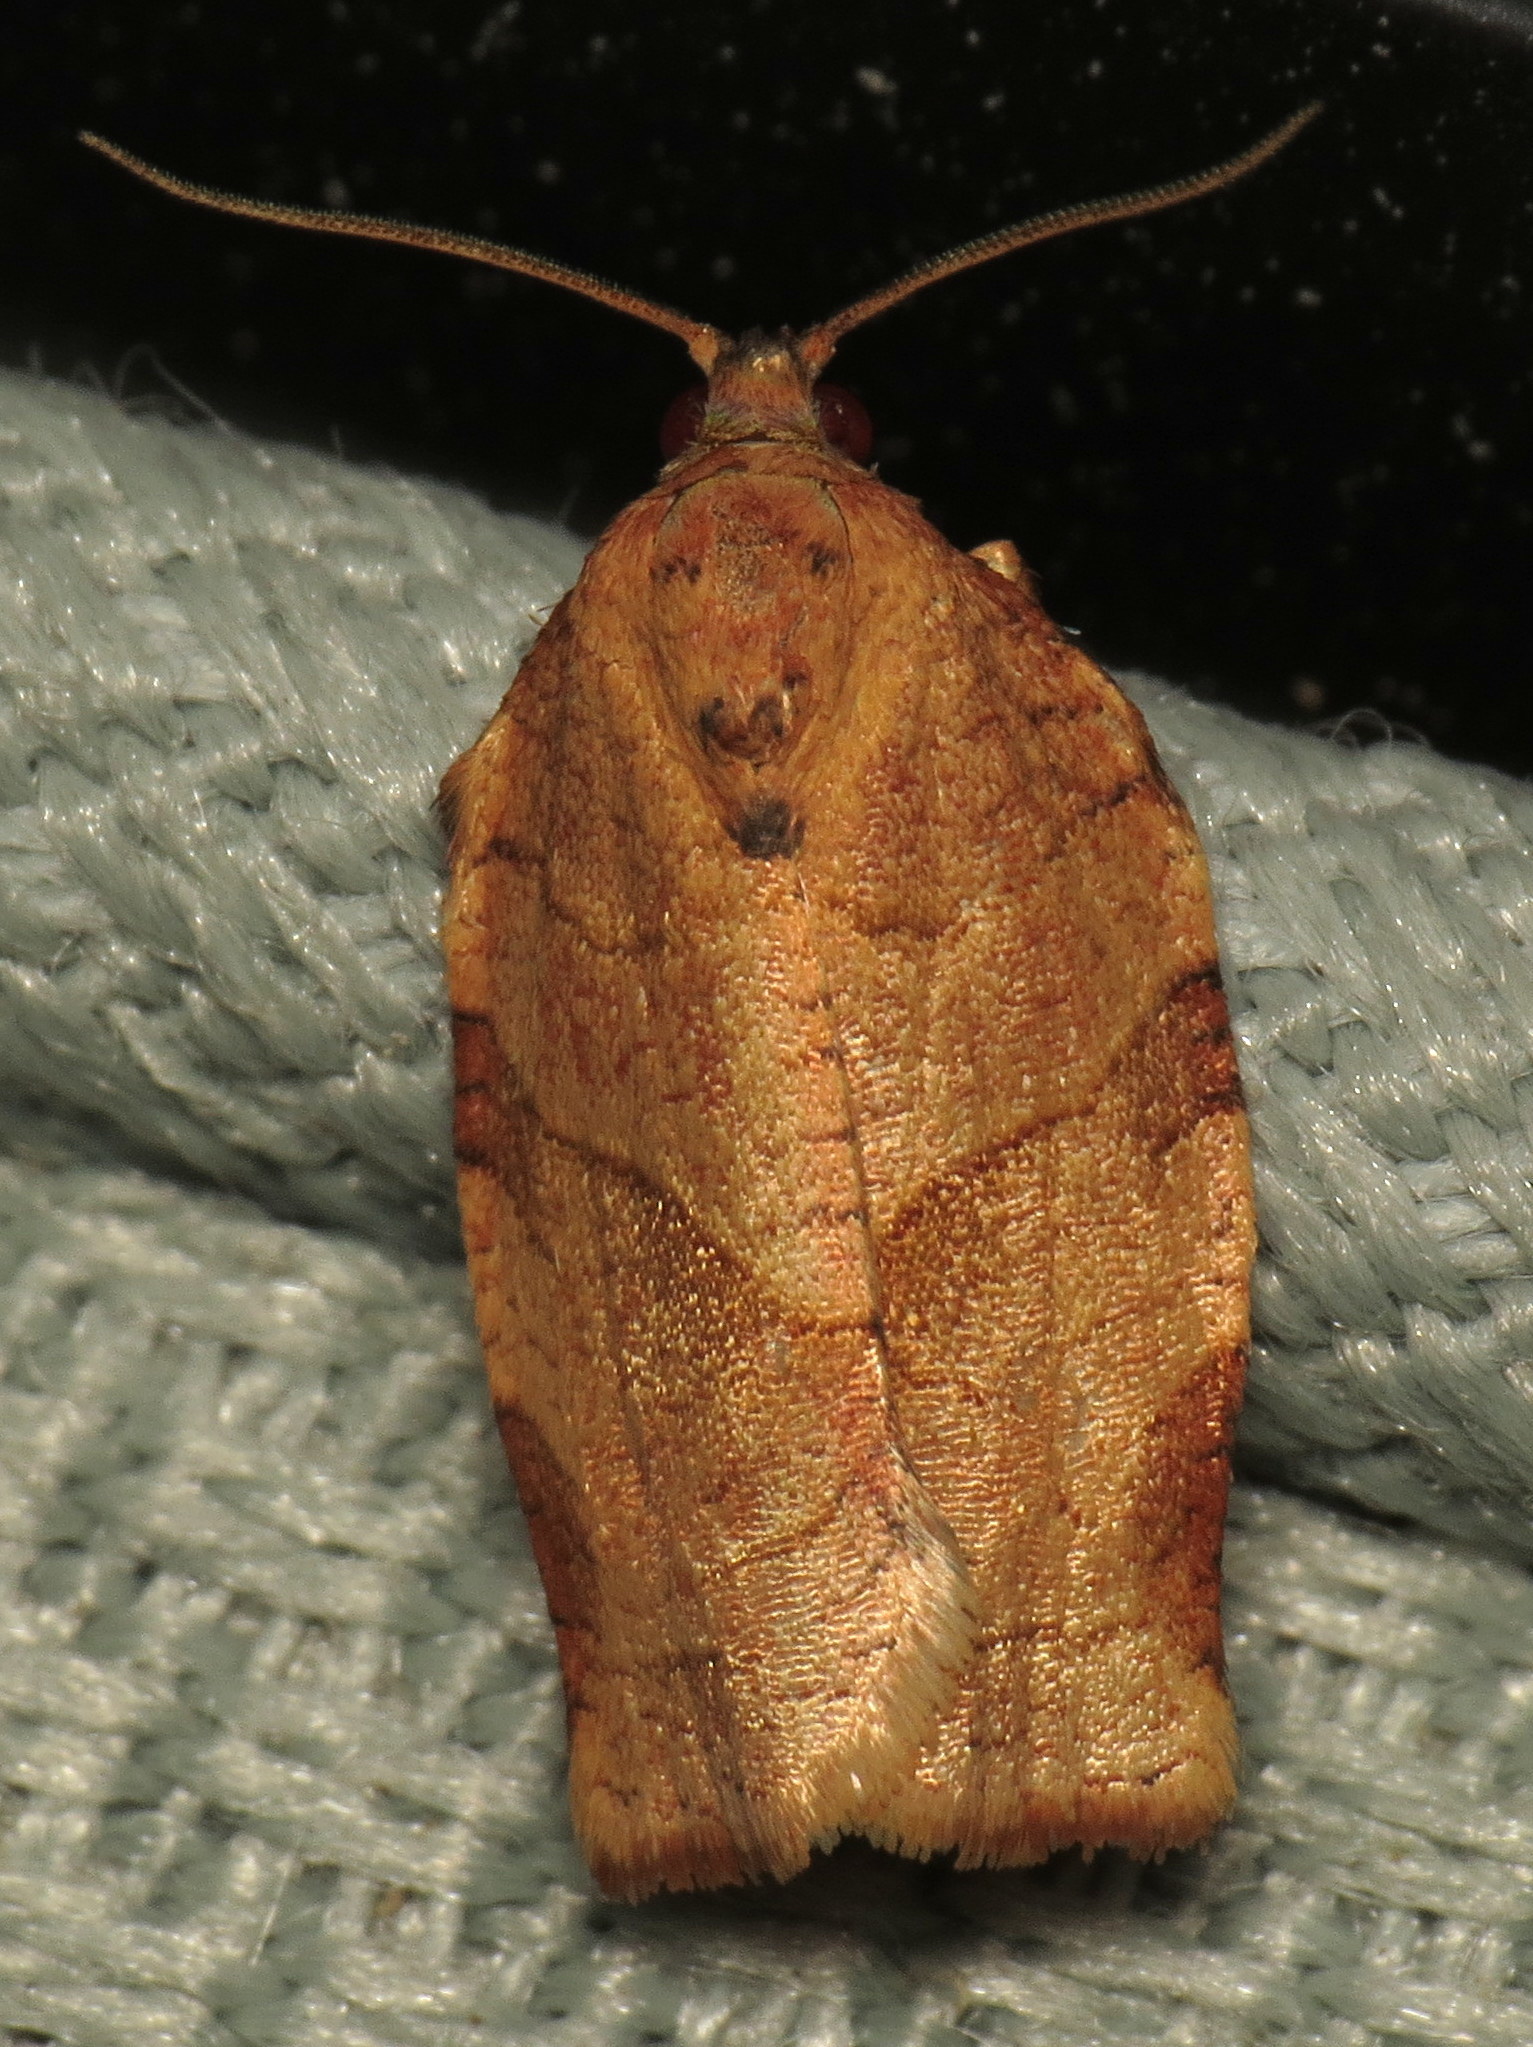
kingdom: Animalia
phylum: Arthropoda
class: Insecta
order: Lepidoptera
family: Tortricidae
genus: Choristoneura
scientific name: Choristoneura rosaceana
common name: Oblique-banded leafroller moth
